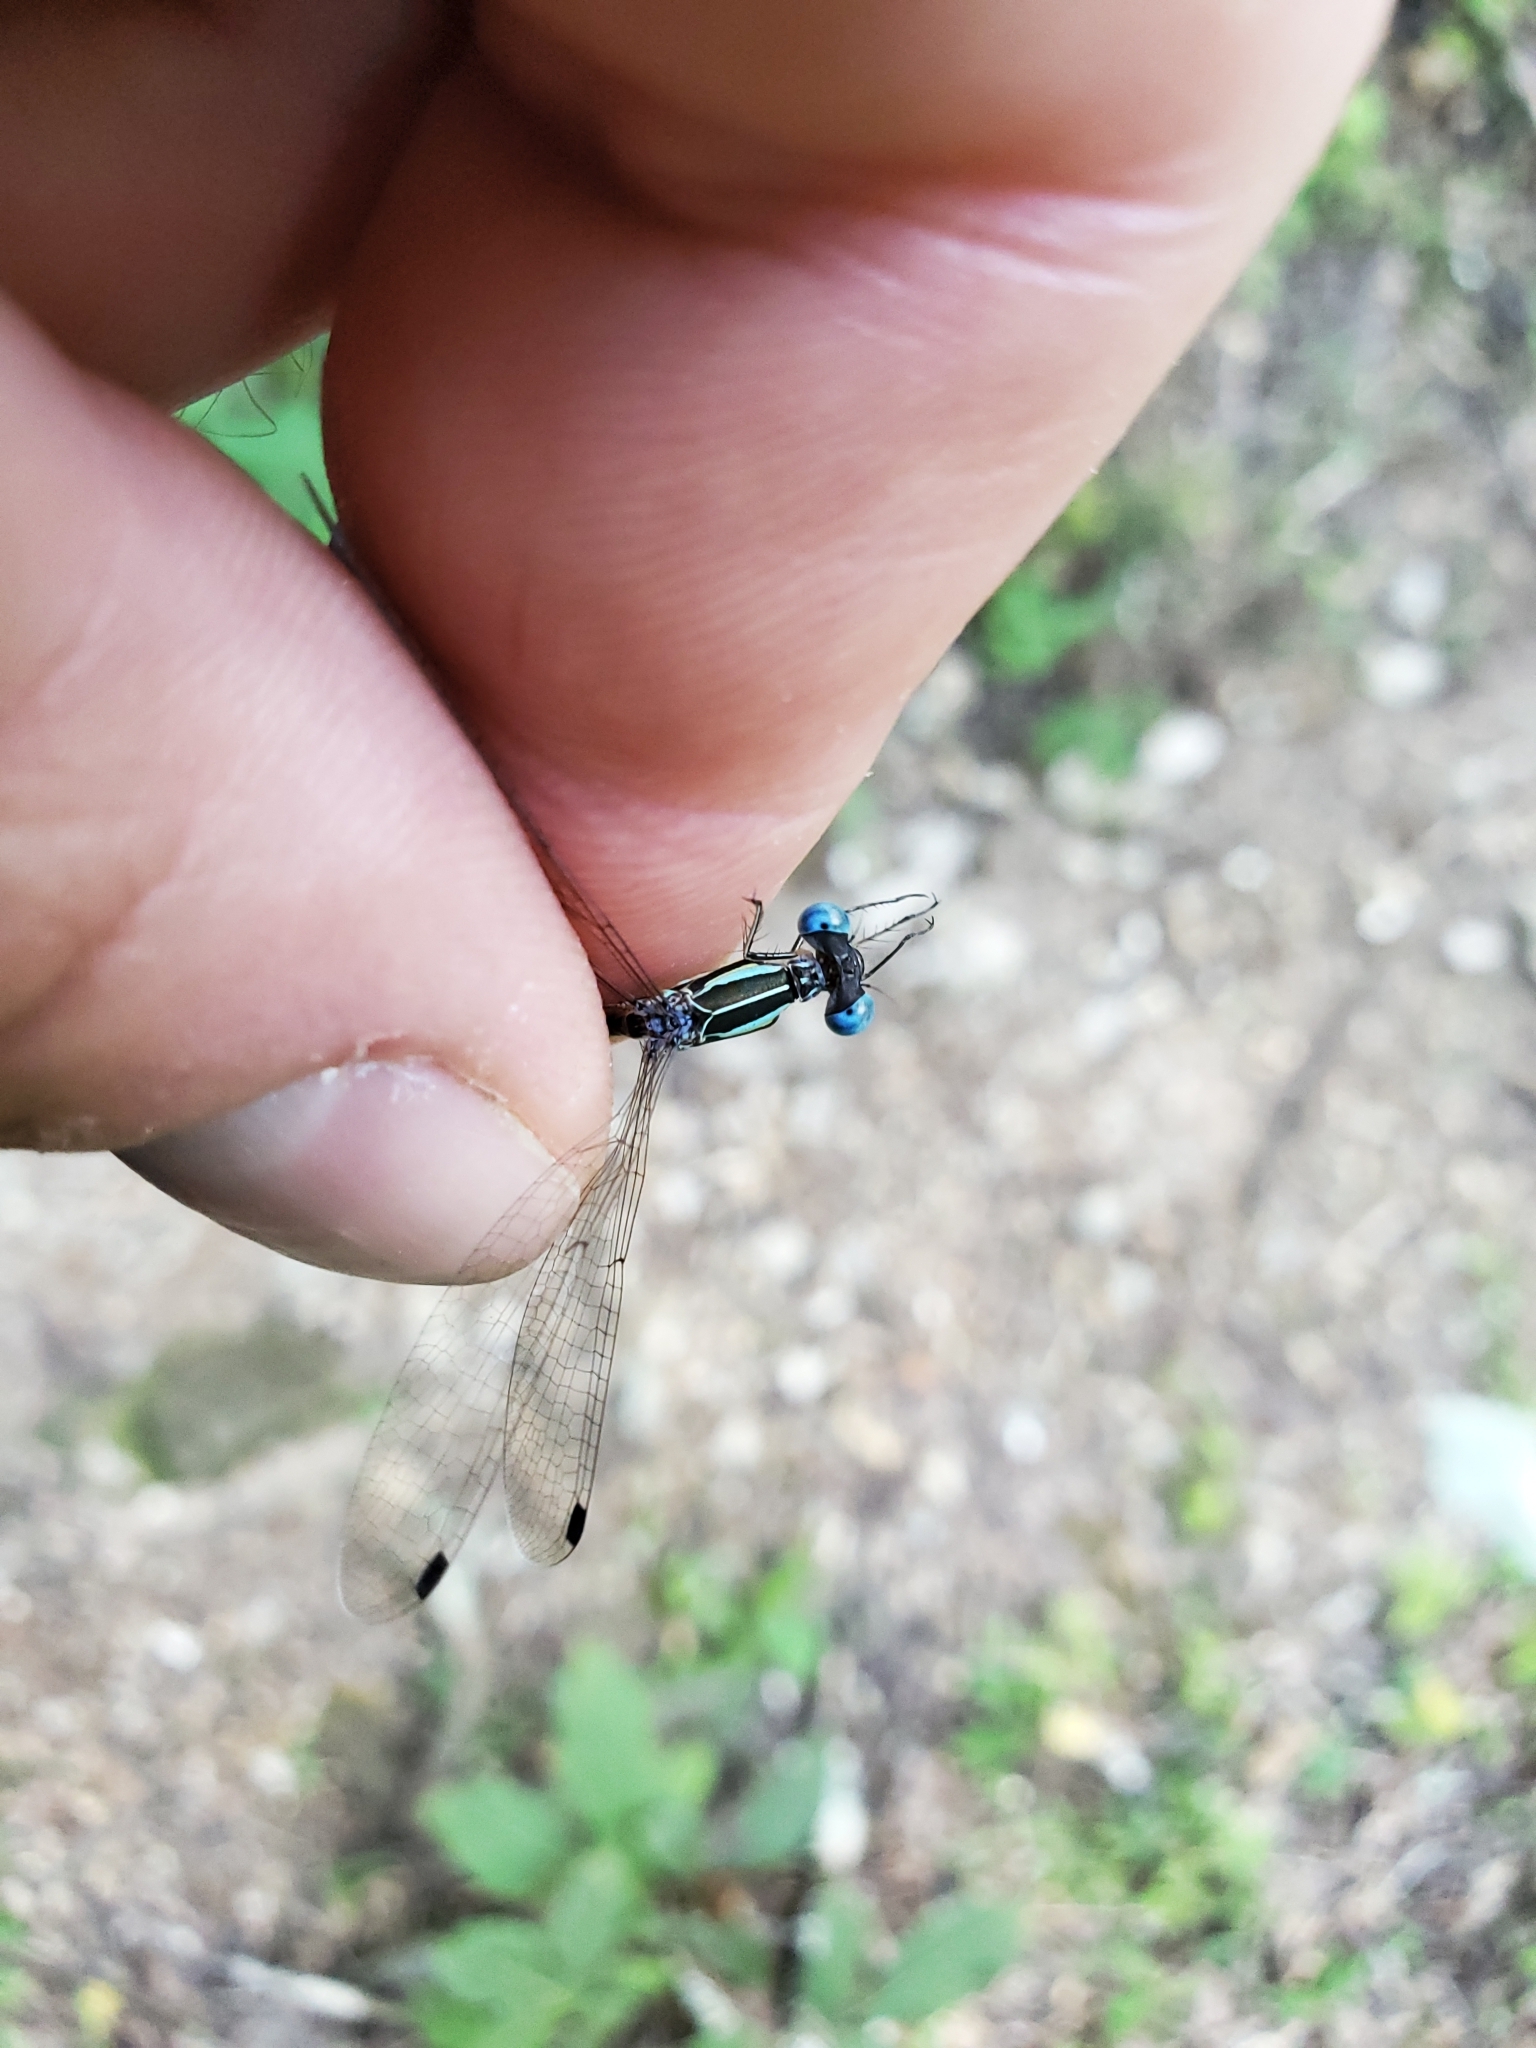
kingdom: Animalia
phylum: Arthropoda
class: Insecta
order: Odonata
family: Lestidae
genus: Lestes
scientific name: Lestes rectangularis
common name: Slender spreadwing
